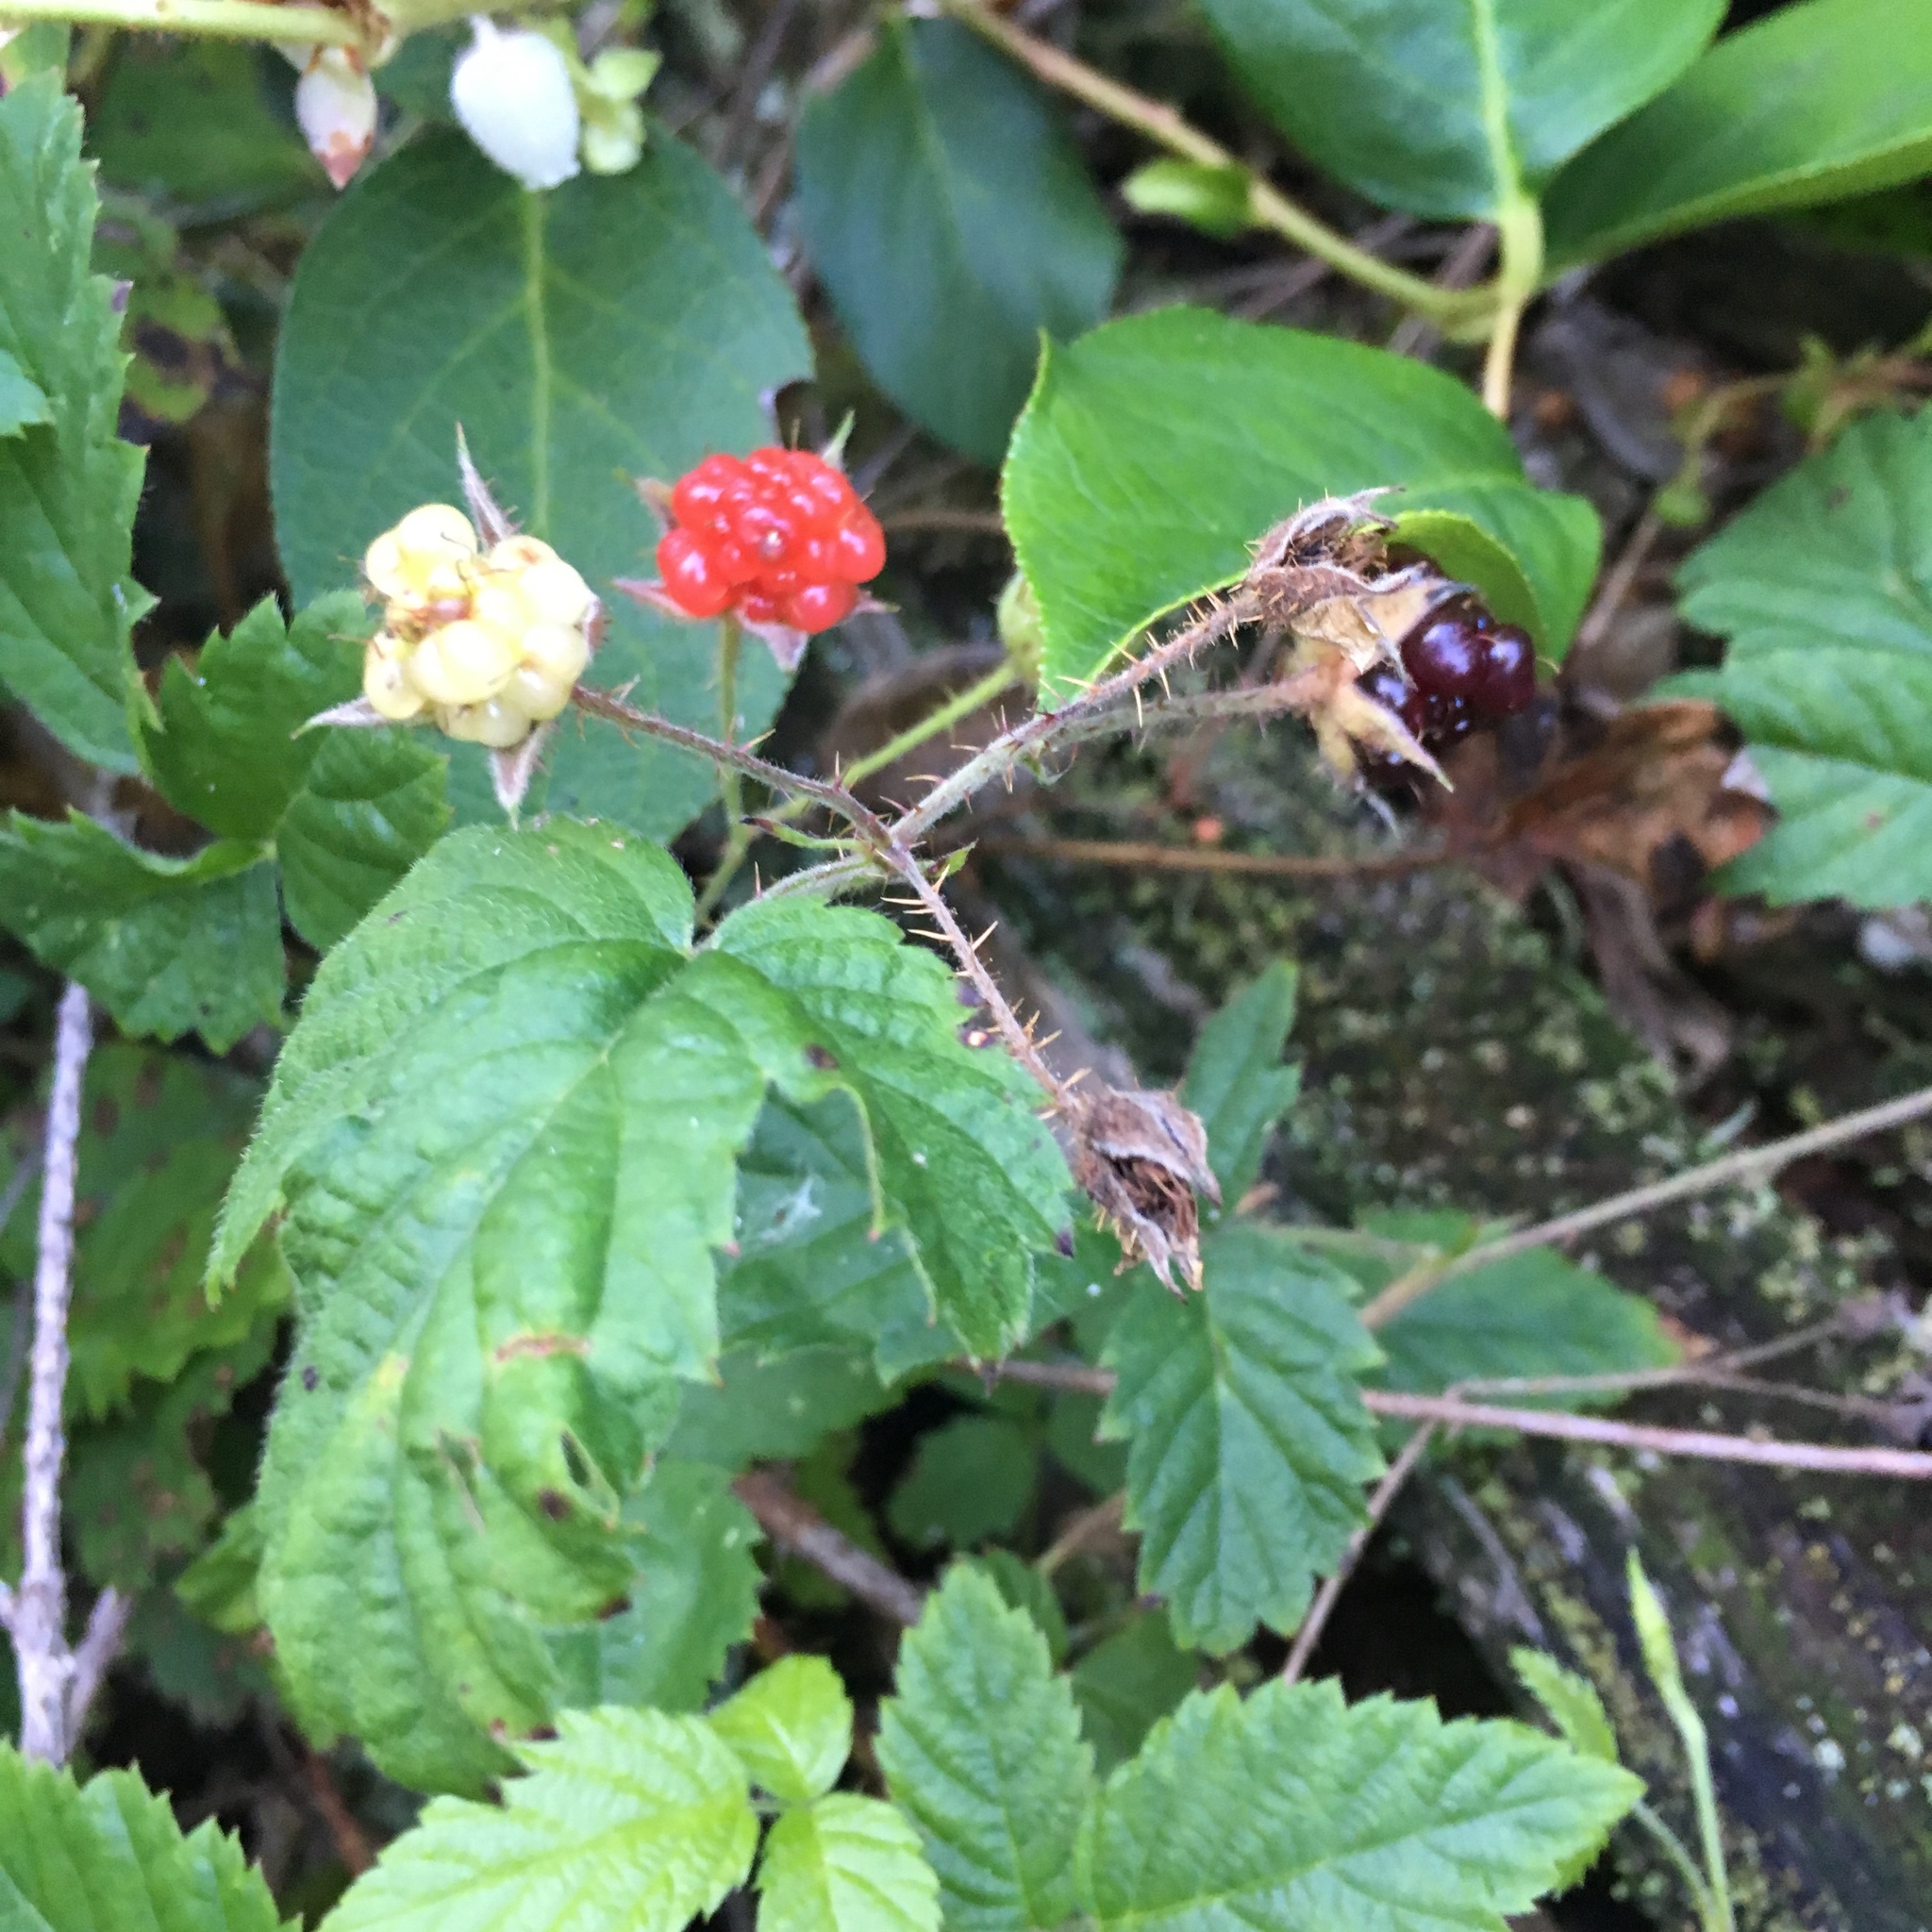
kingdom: Plantae
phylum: Tracheophyta
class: Magnoliopsida
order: Rosales
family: Rosaceae
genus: Rubus
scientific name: Rubus ursinus
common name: Pacific blackberry
